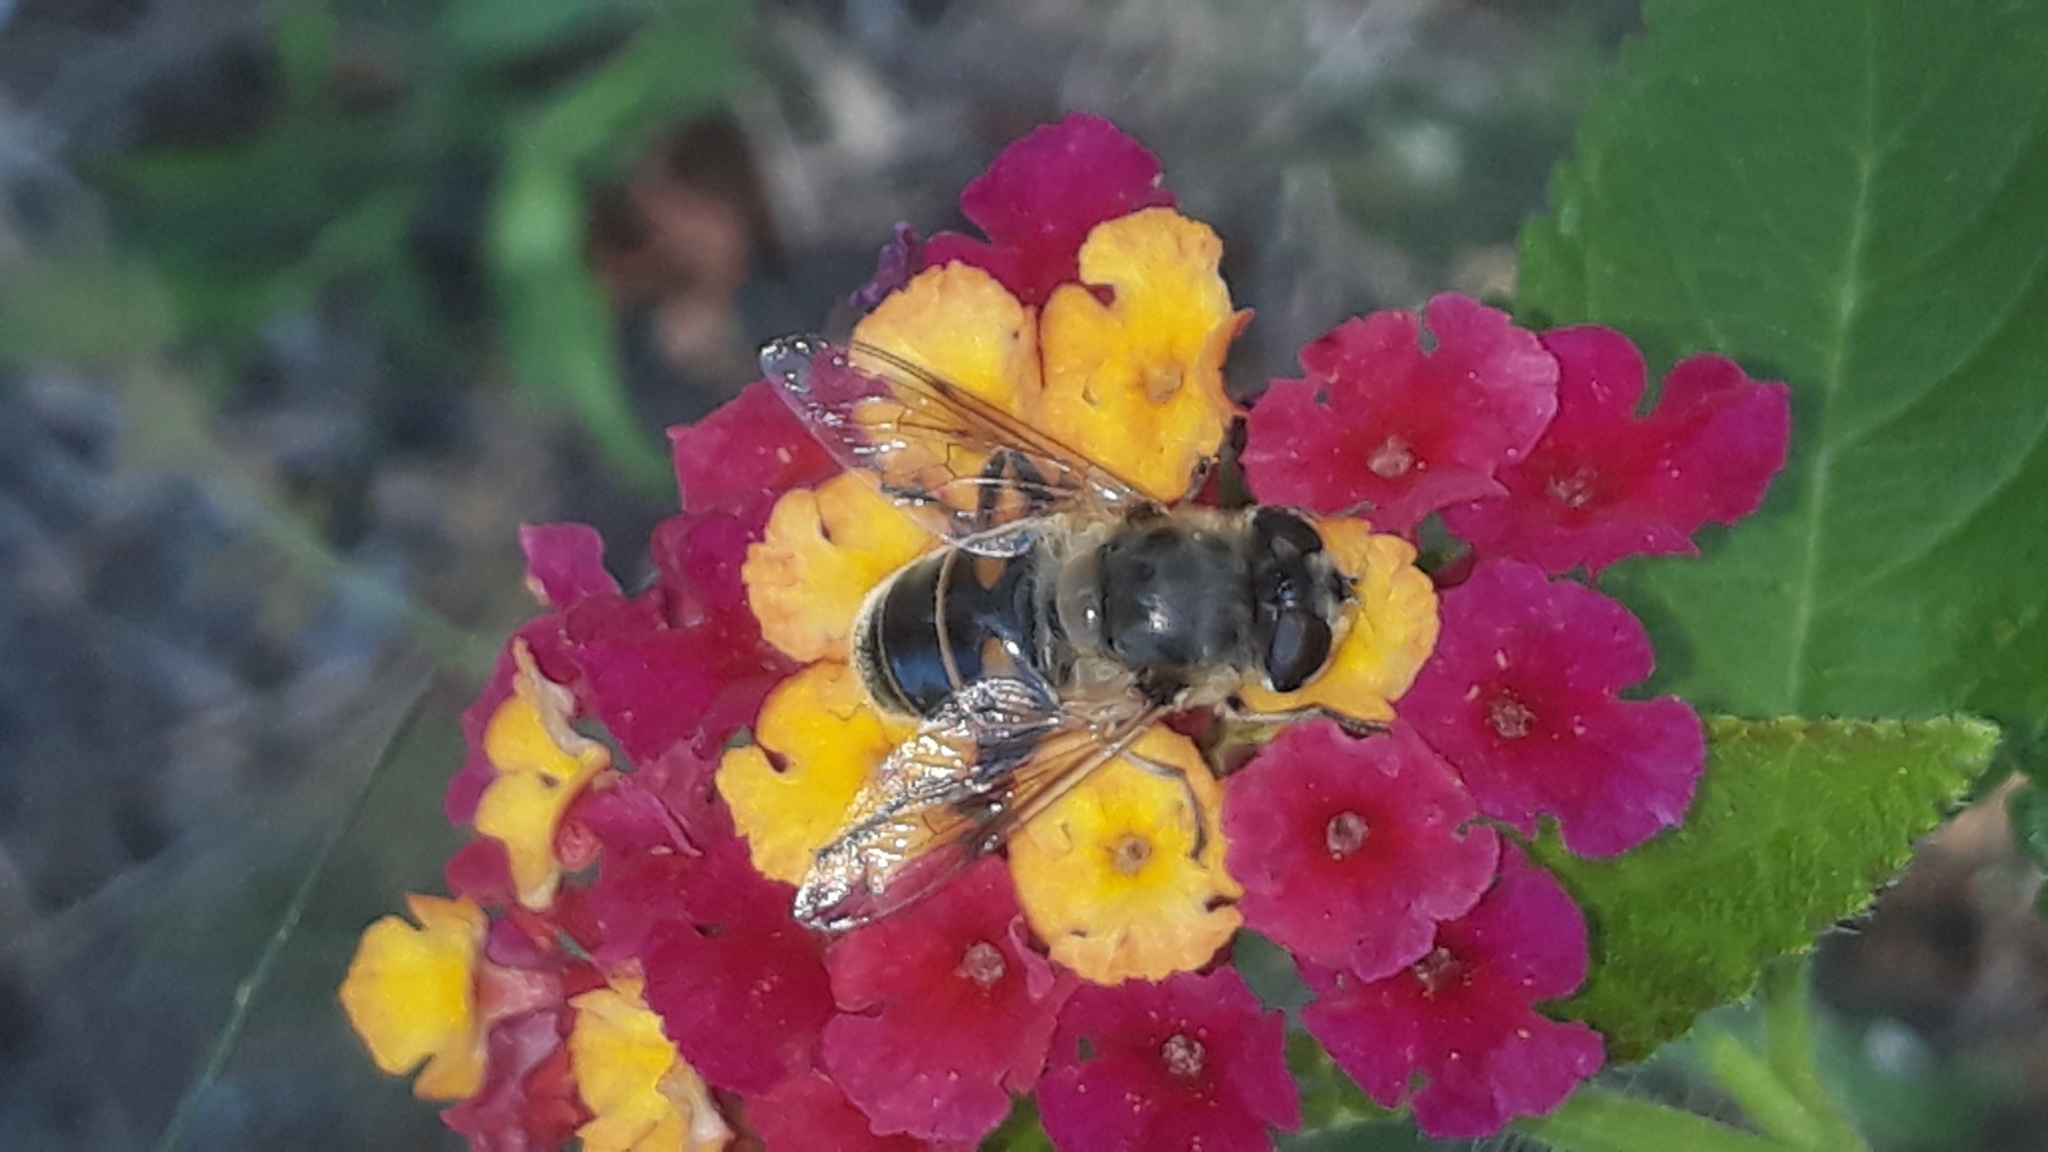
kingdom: Animalia
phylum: Arthropoda
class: Insecta
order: Diptera
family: Syrphidae
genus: Eristalis
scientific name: Eristalis tenax
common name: Drone fly
